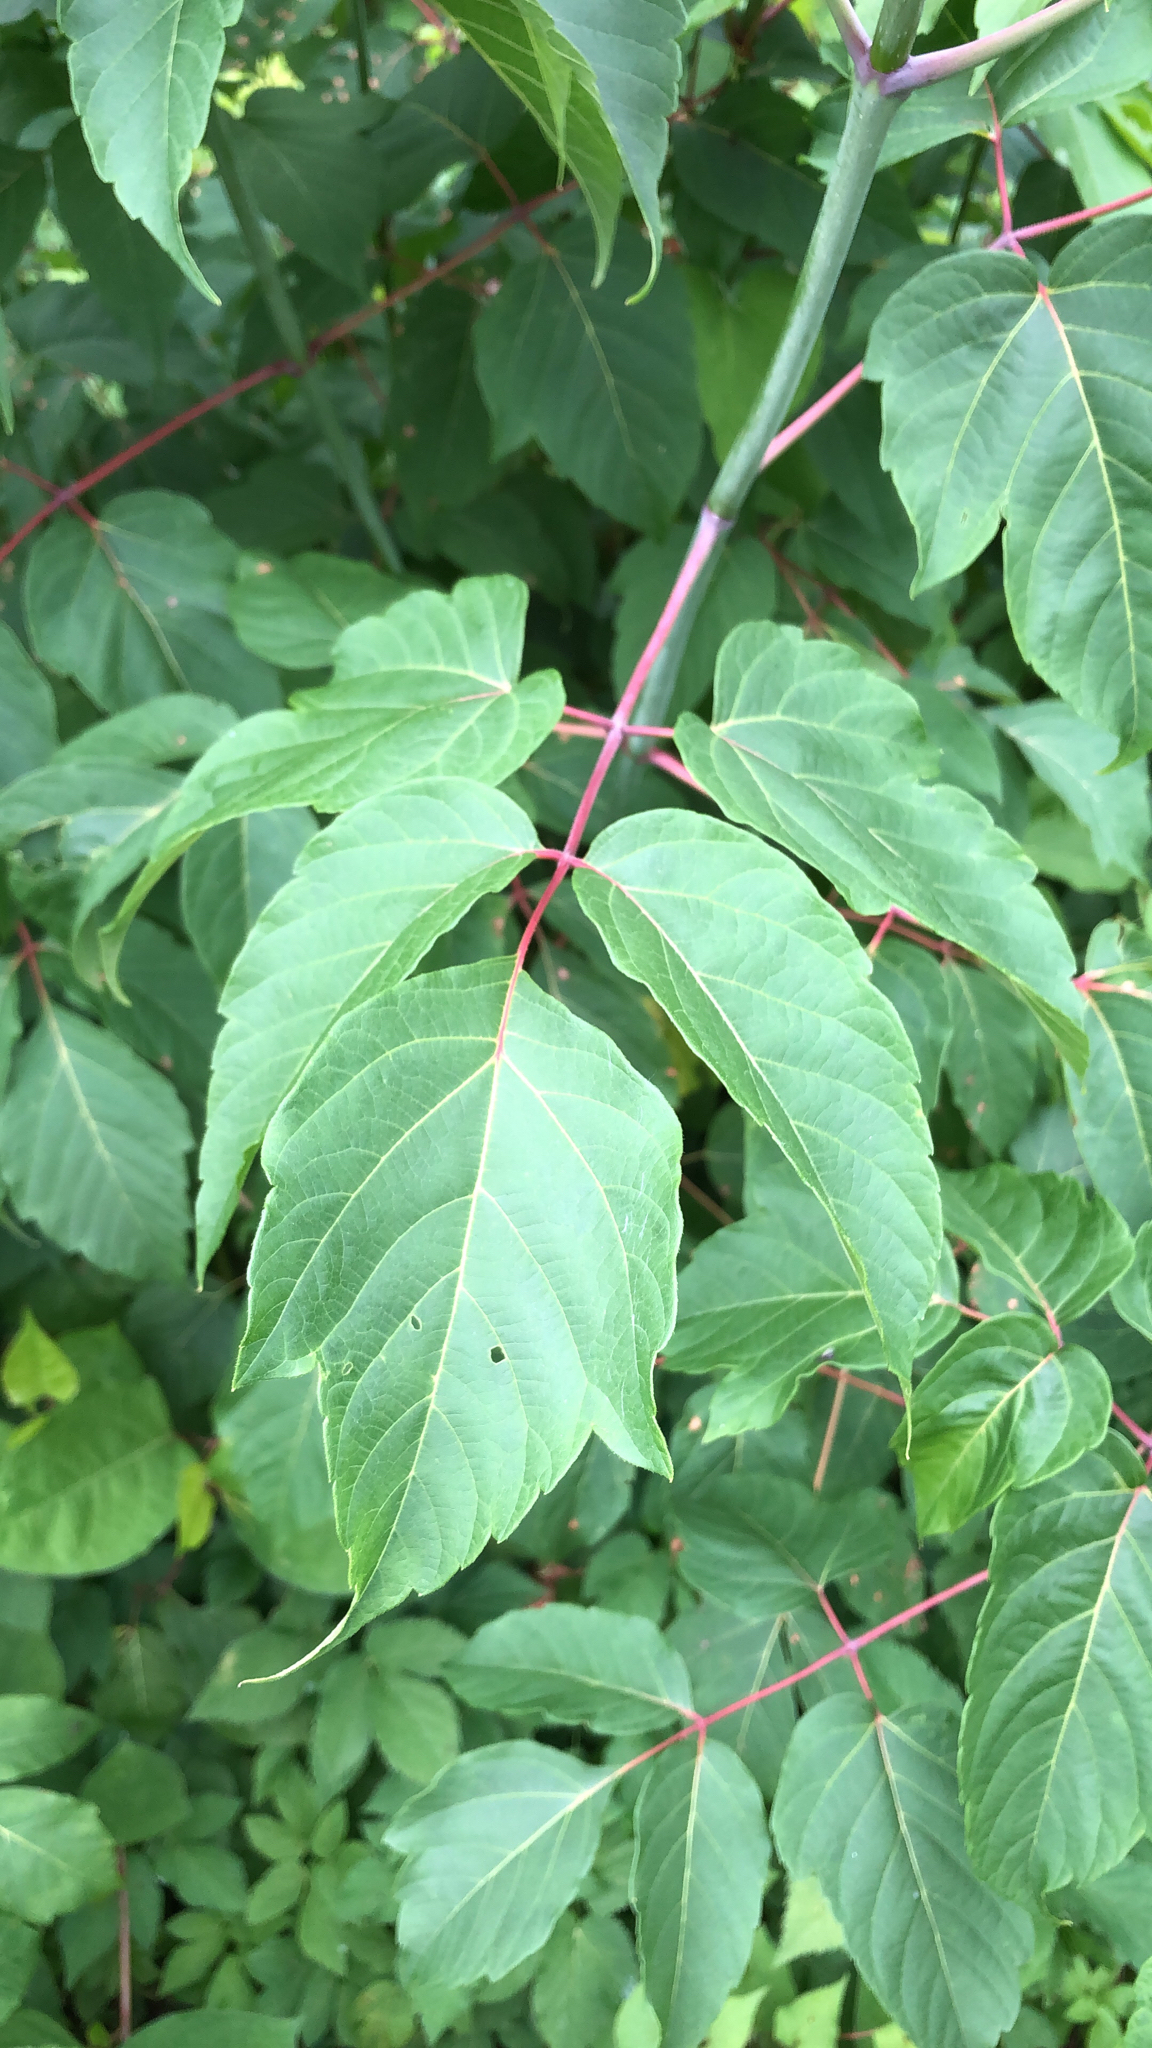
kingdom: Plantae
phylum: Tracheophyta
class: Magnoliopsida
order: Sapindales
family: Sapindaceae
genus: Acer
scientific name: Acer negundo
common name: Ashleaf maple
